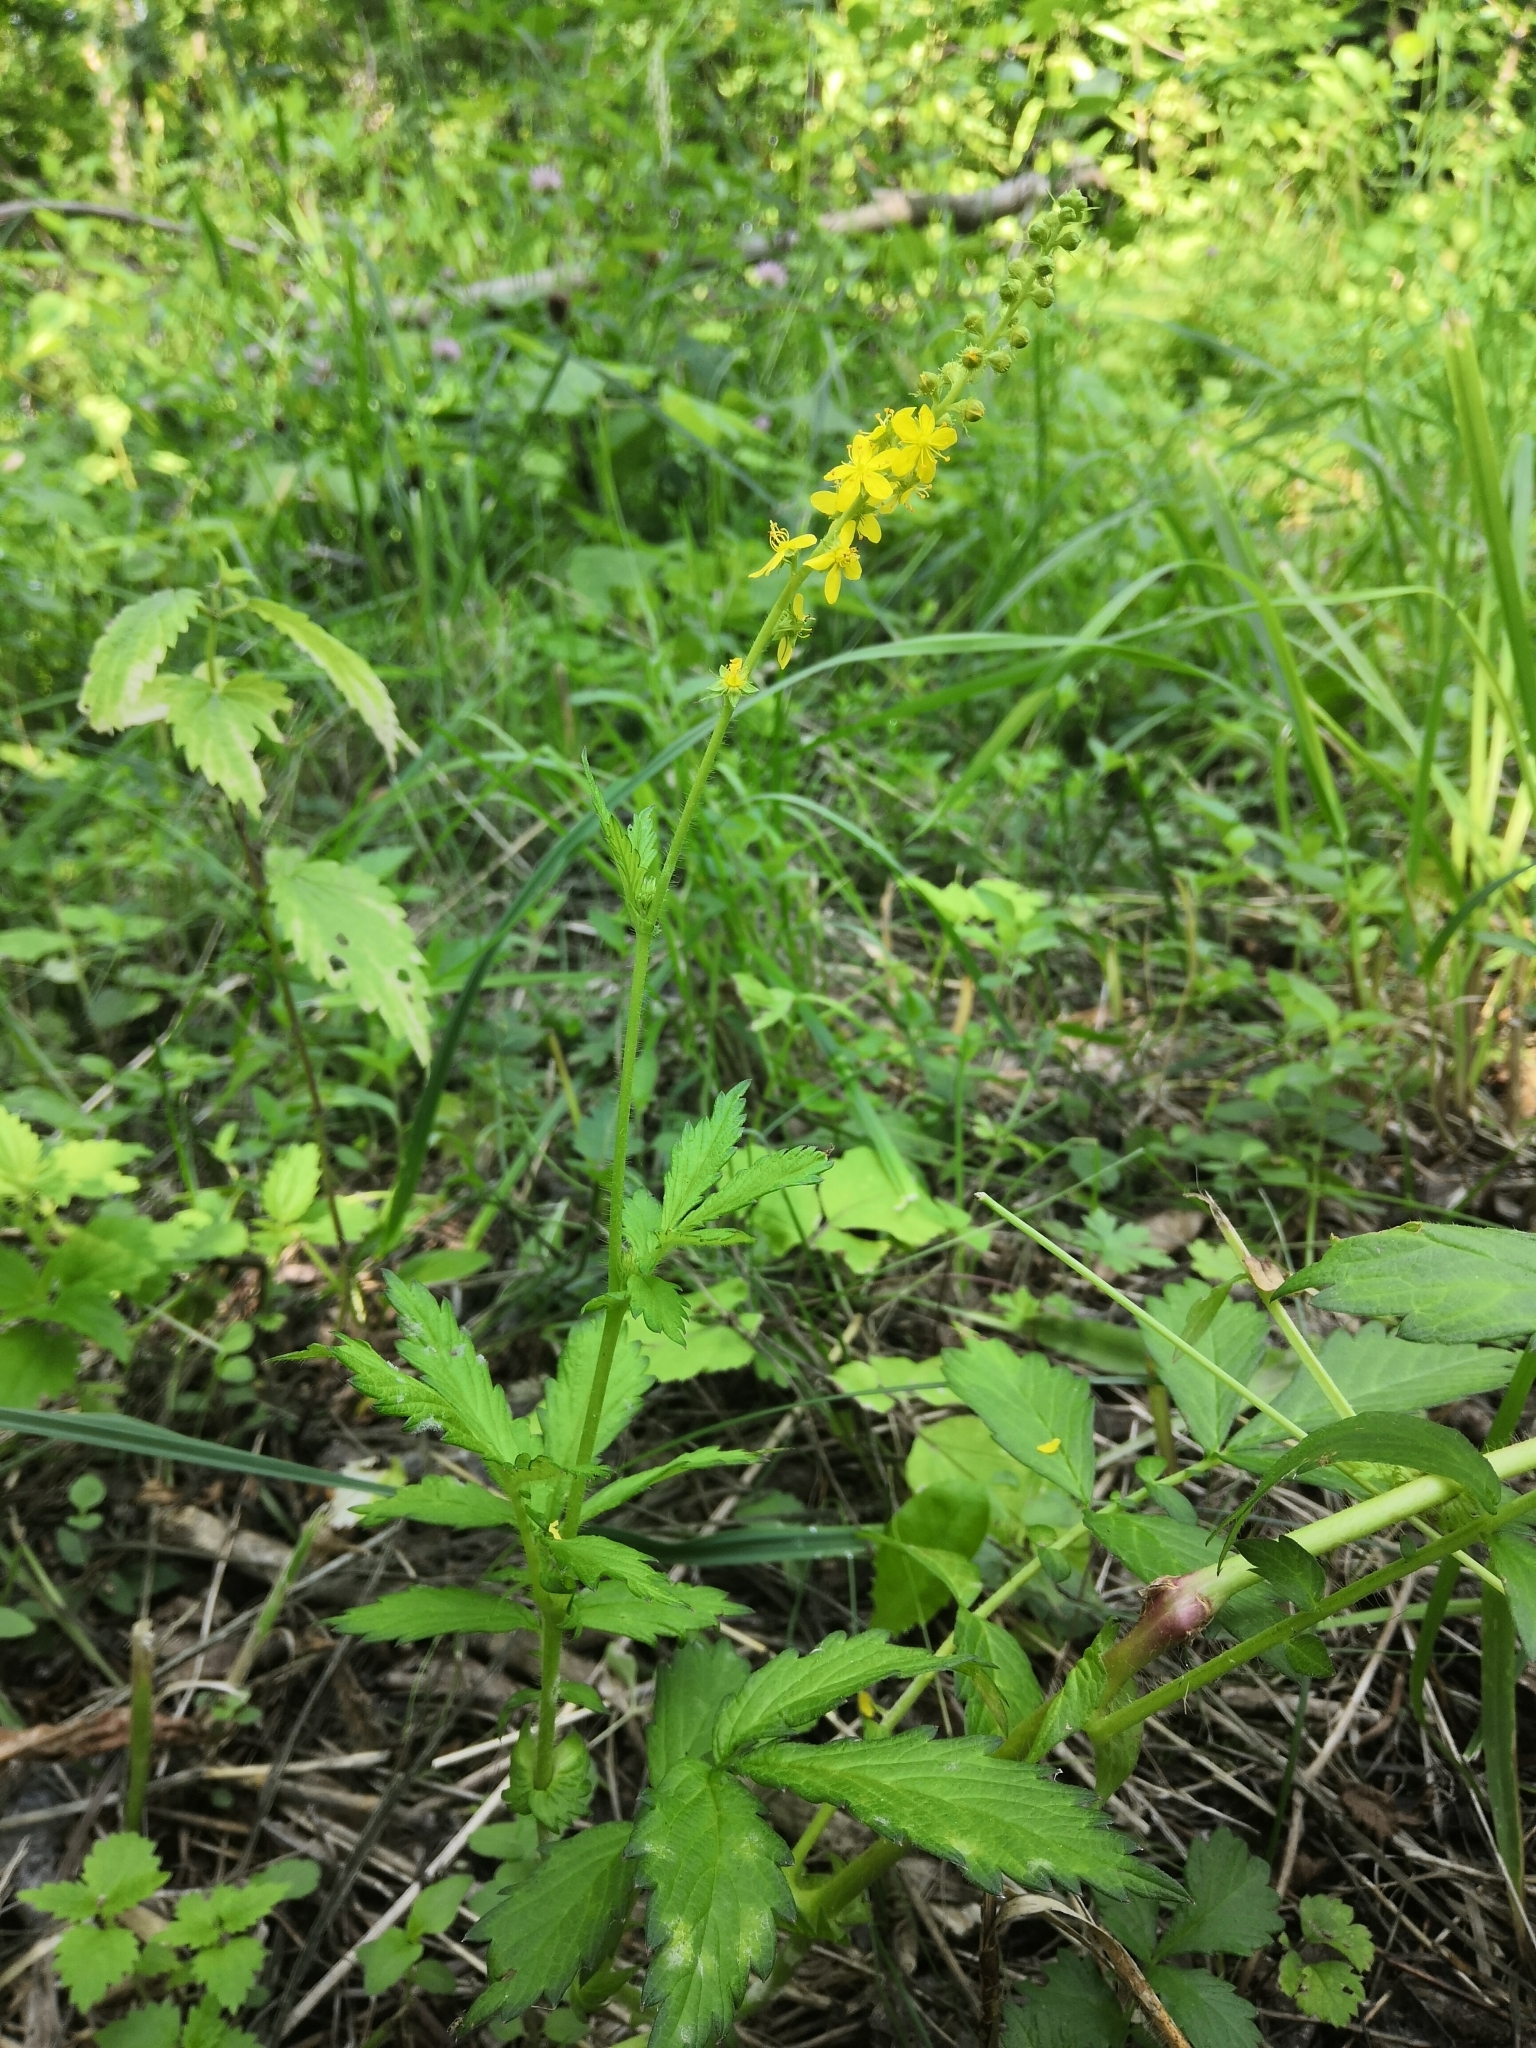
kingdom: Plantae
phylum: Tracheophyta
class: Magnoliopsida
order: Rosales
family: Rosaceae
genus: Agrimonia
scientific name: Agrimonia pilosa
